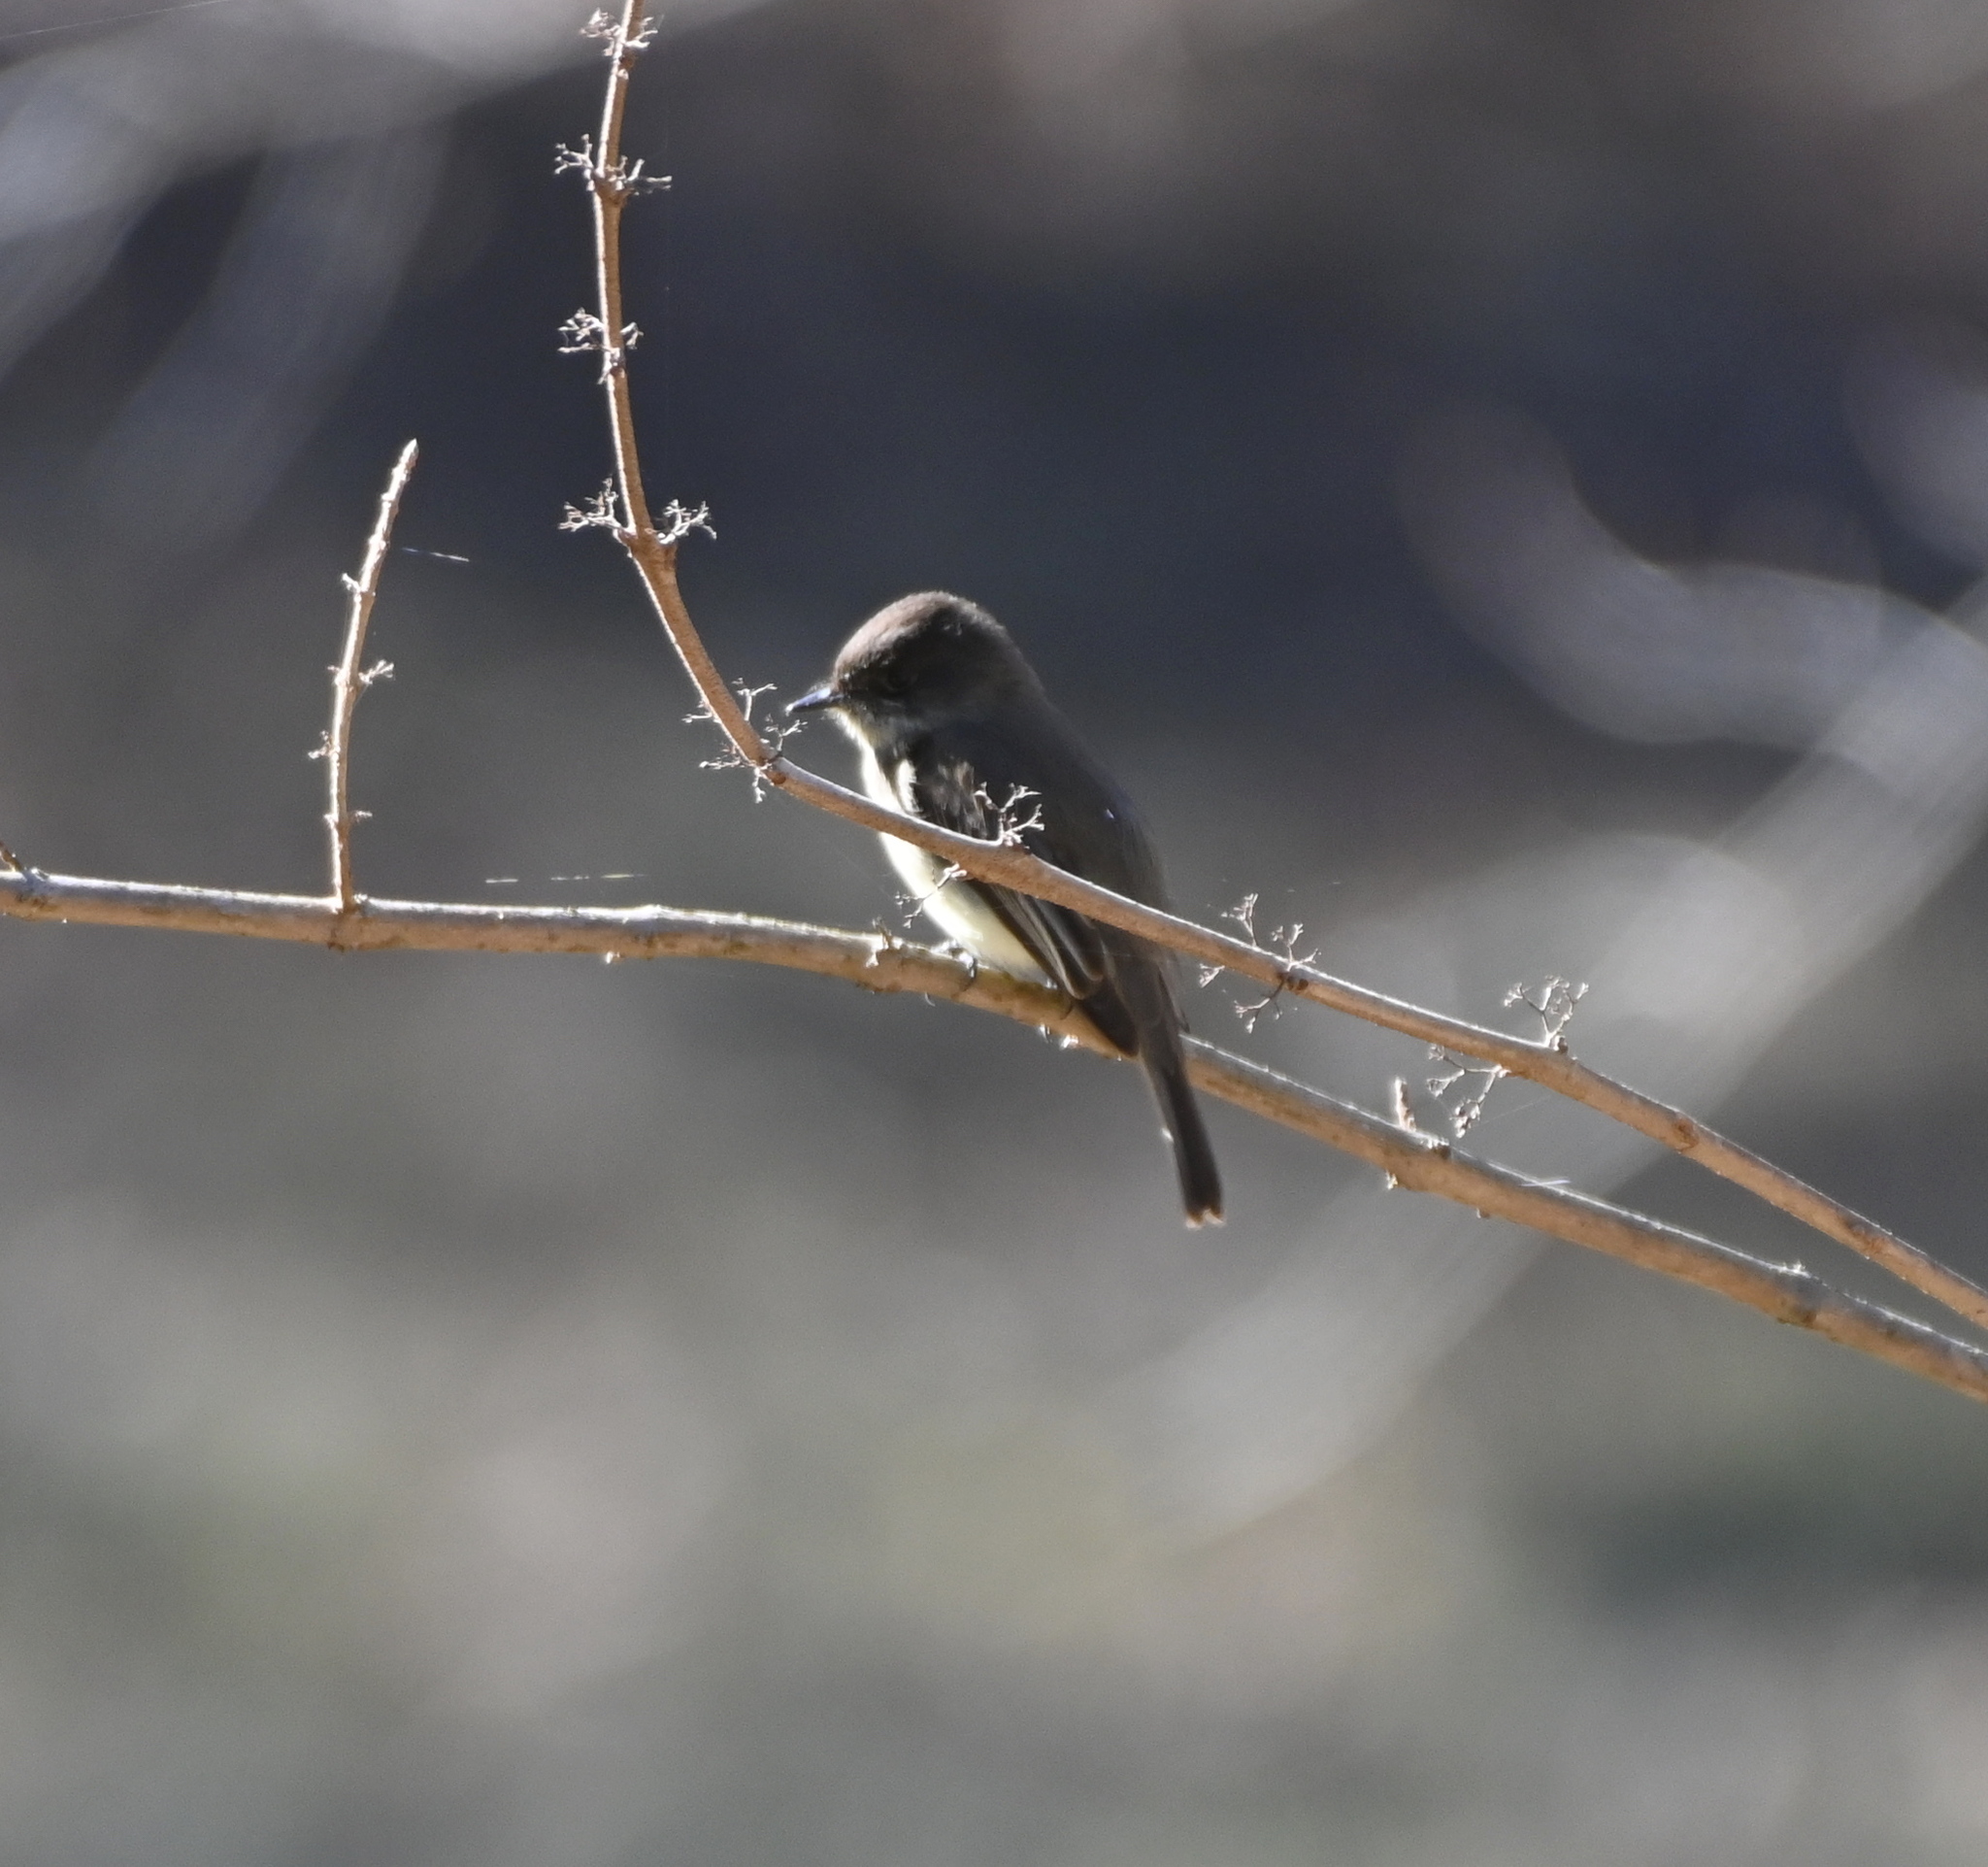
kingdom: Animalia
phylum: Chordata
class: Aves
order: Passeriformes
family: Tyrannidae
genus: Sayornis
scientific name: Sayornis phoebe
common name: Eastern phoebe
